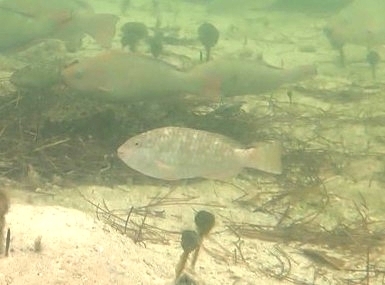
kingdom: Animalia
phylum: Chordata
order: Perciformes
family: Scaridae
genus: Sparisoma
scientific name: Sparisoma rubripinne
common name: Redfin parrotfish
